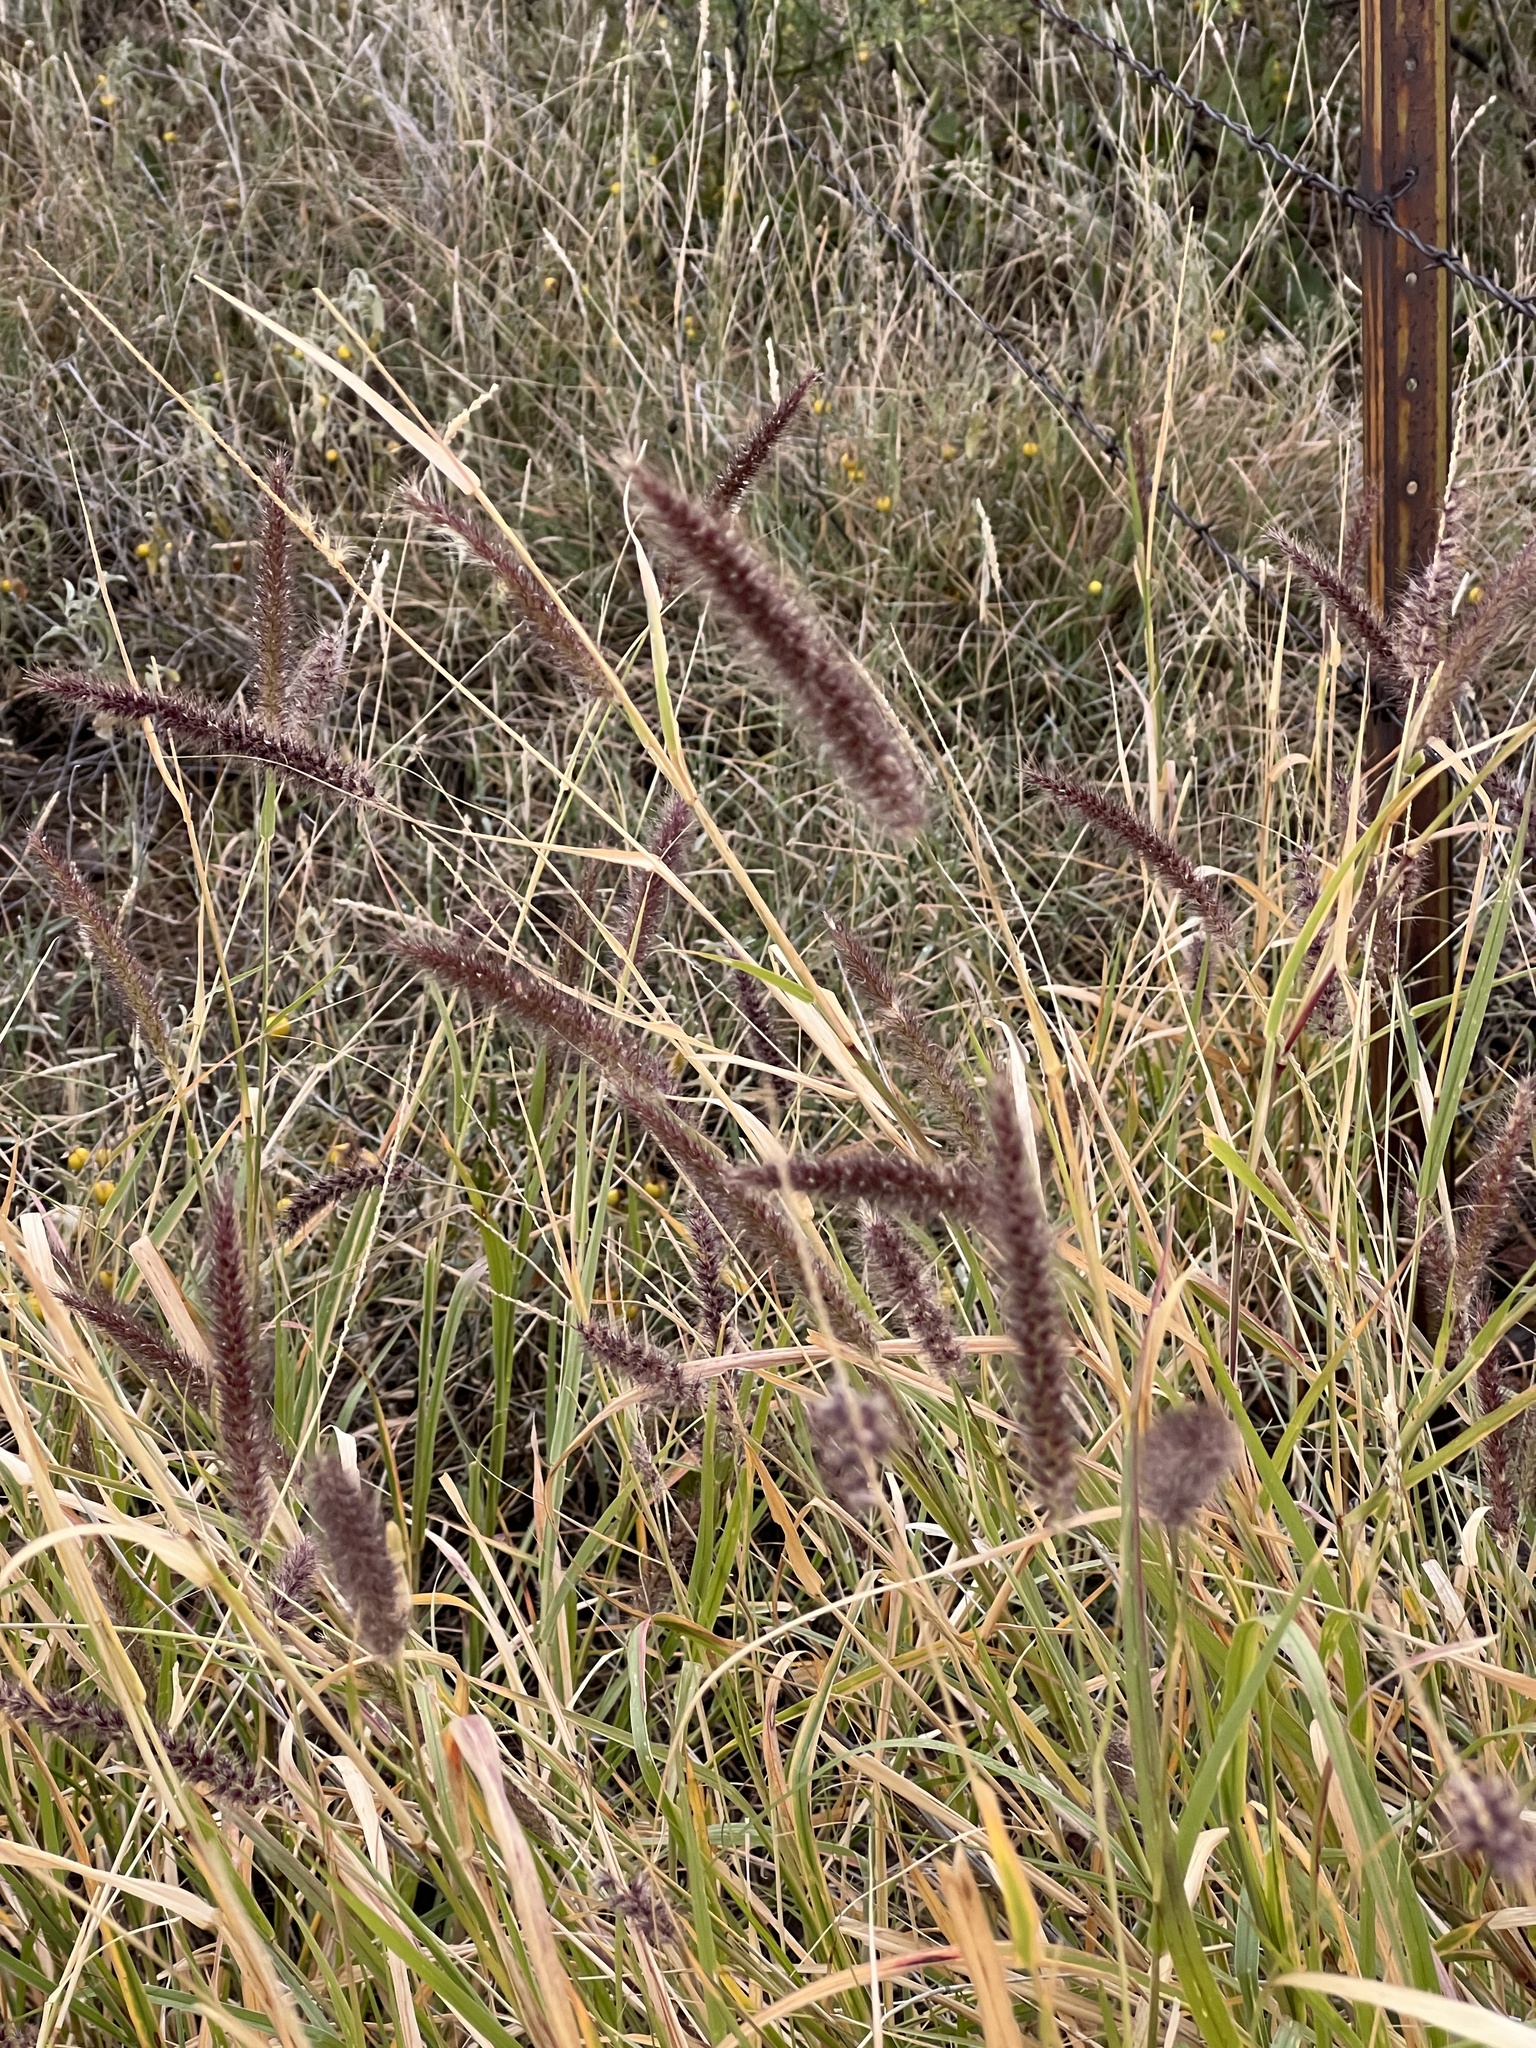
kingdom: Plantae
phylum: Tracheophyta
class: Liliopsida
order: Poales
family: Poaceae
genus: Cenchrus
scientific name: Cenchrus ciliaris
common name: Buffelgrass
